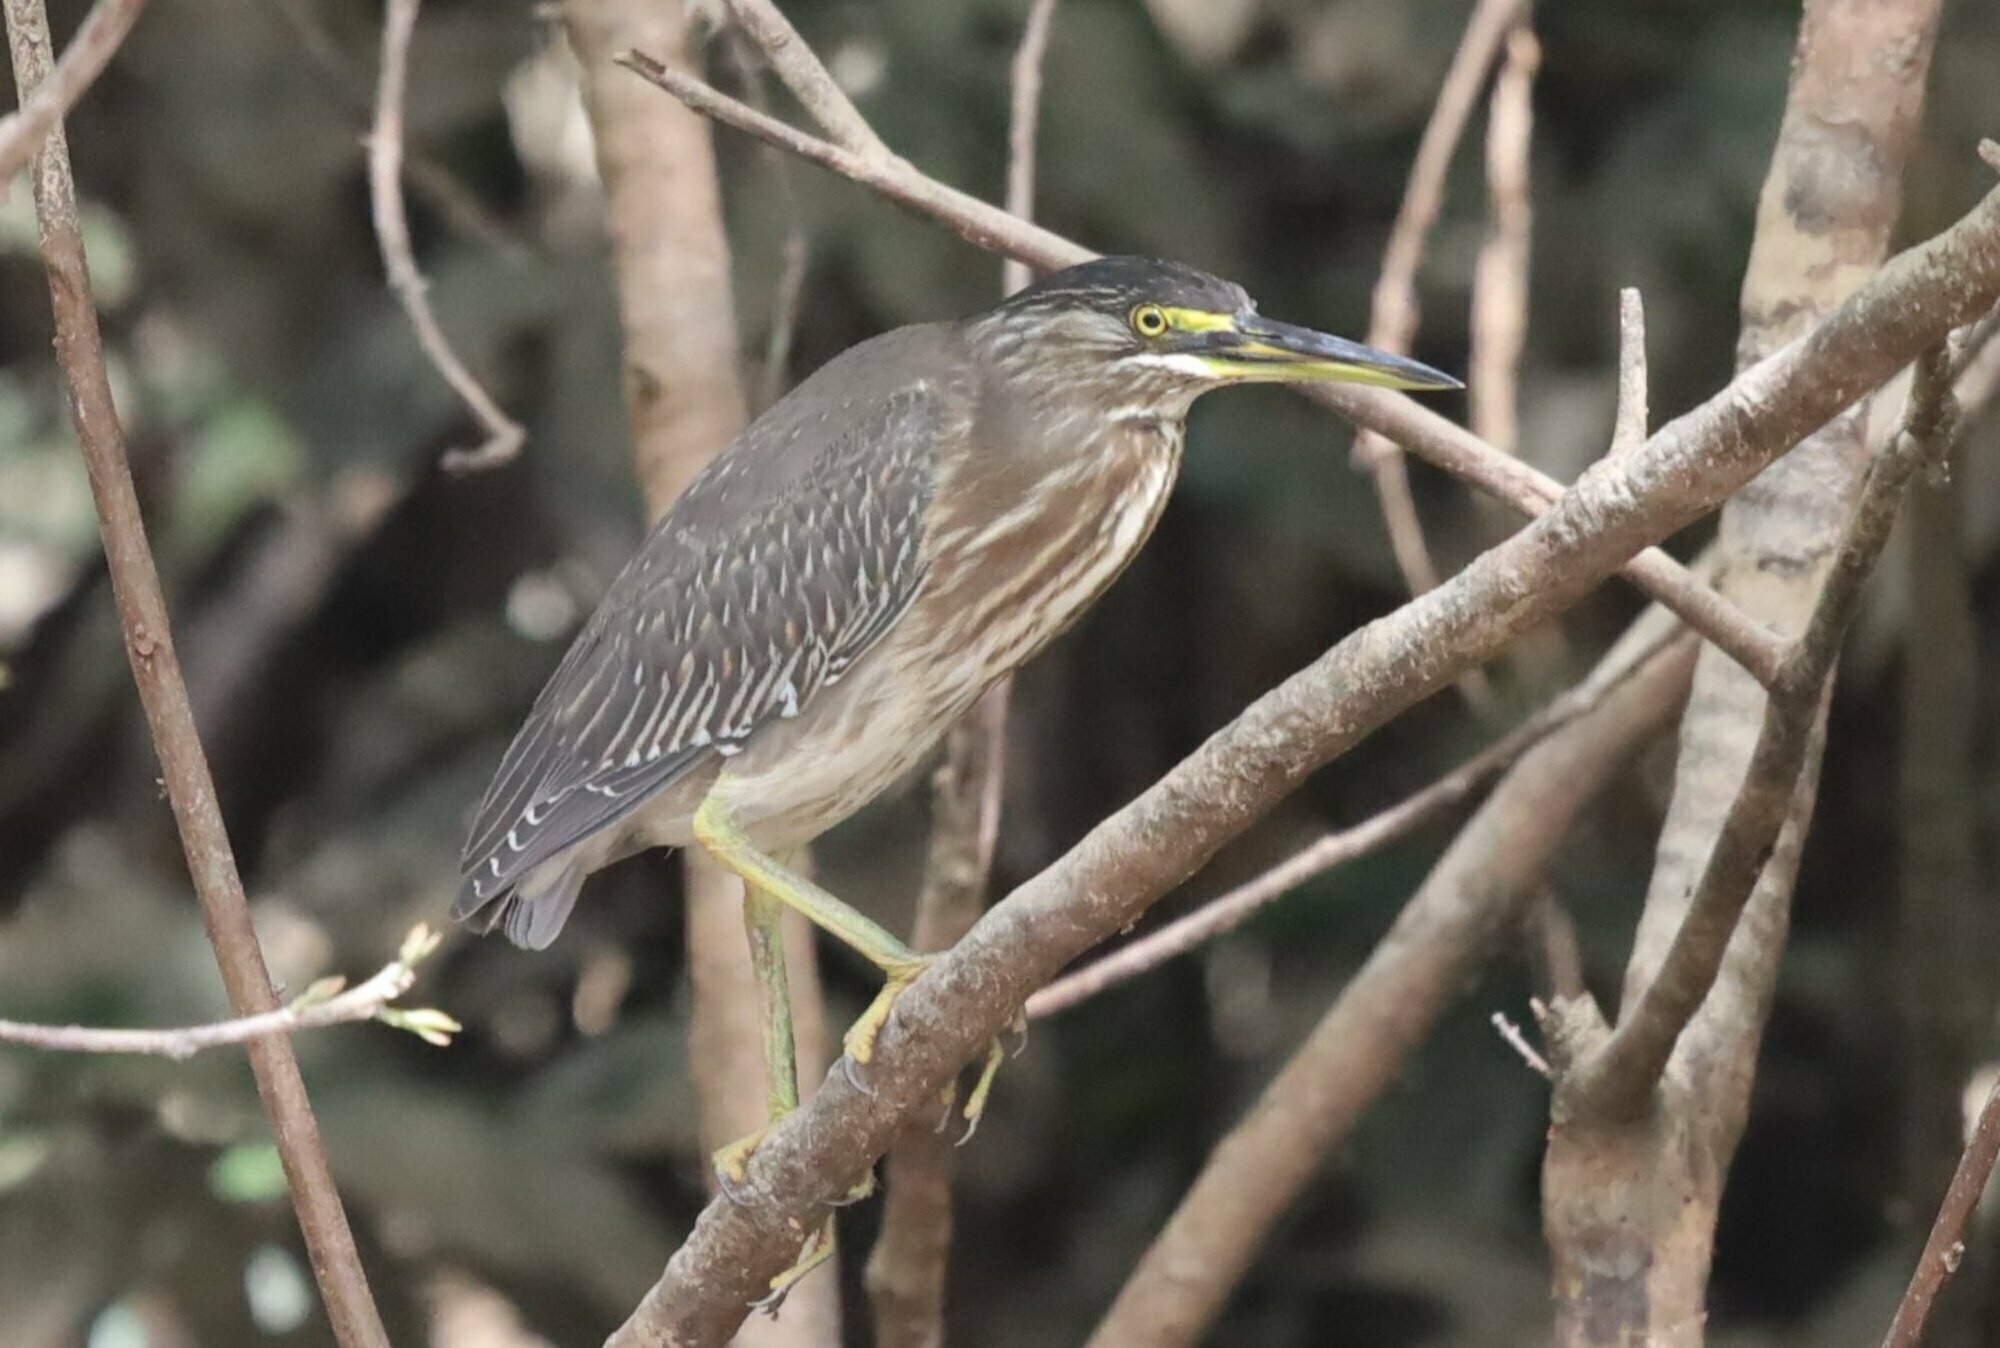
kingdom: Animalia
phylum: Chordata
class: Aves
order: Pelecaniformes
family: Ardeidae
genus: Butorides
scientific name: Butorides striata
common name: Striated heron
